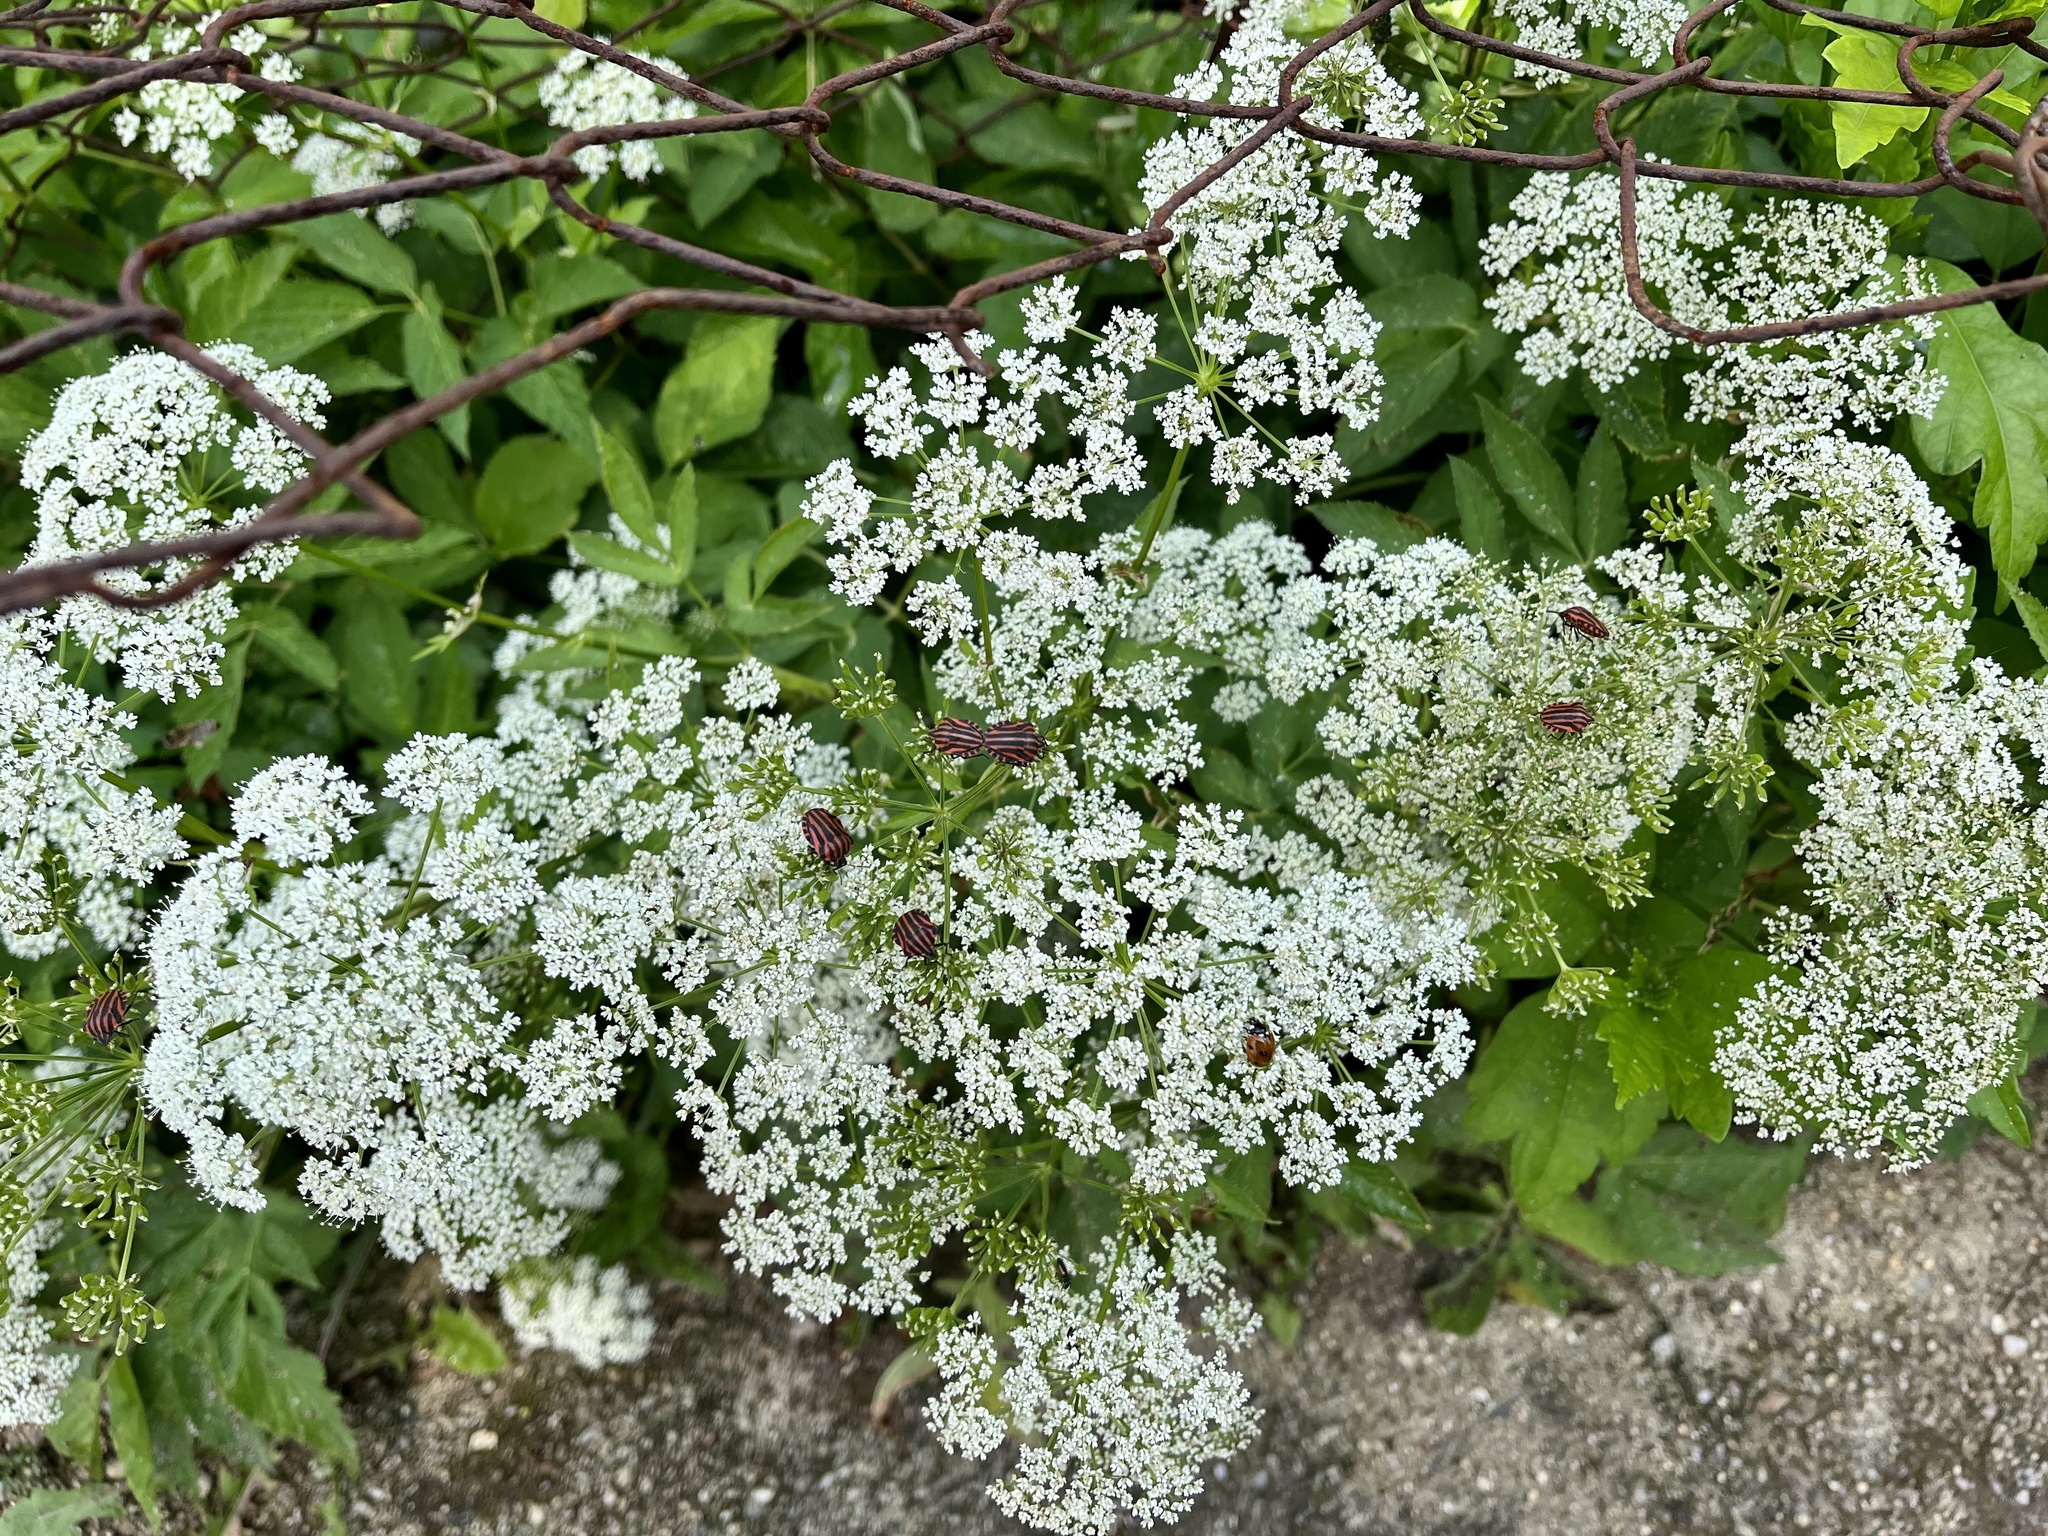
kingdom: Animalia
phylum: Arthropoda
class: Insecta
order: Hemiptera
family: Pentatomidae
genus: Graphosoma
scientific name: Graphosoma italicum
